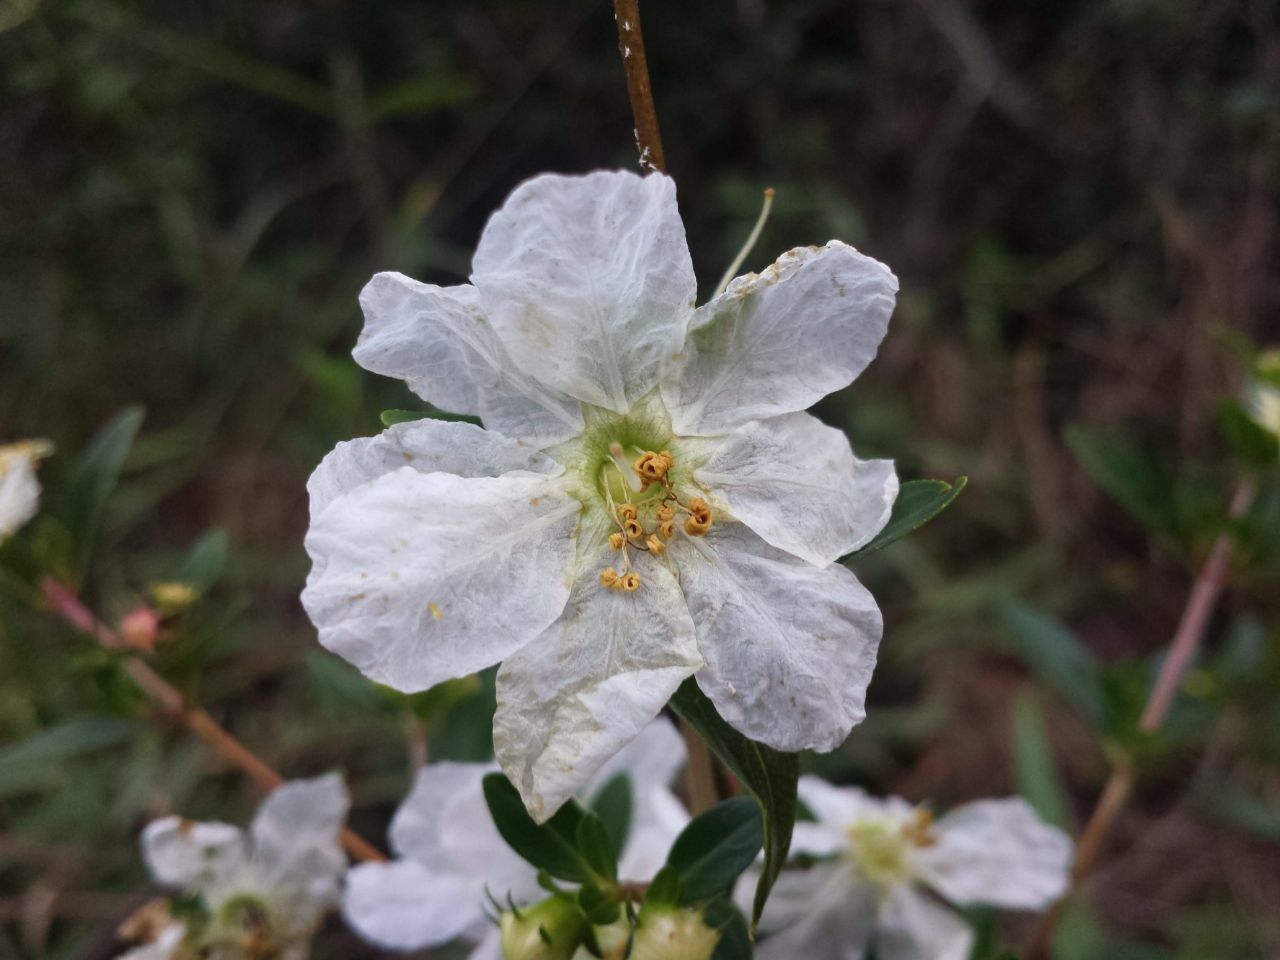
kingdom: Plantae
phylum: Tracheophyta
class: Magnoliopsida
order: Myrtales
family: Lythraceae
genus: Diplusodon
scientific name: Diplusodon virgatus
